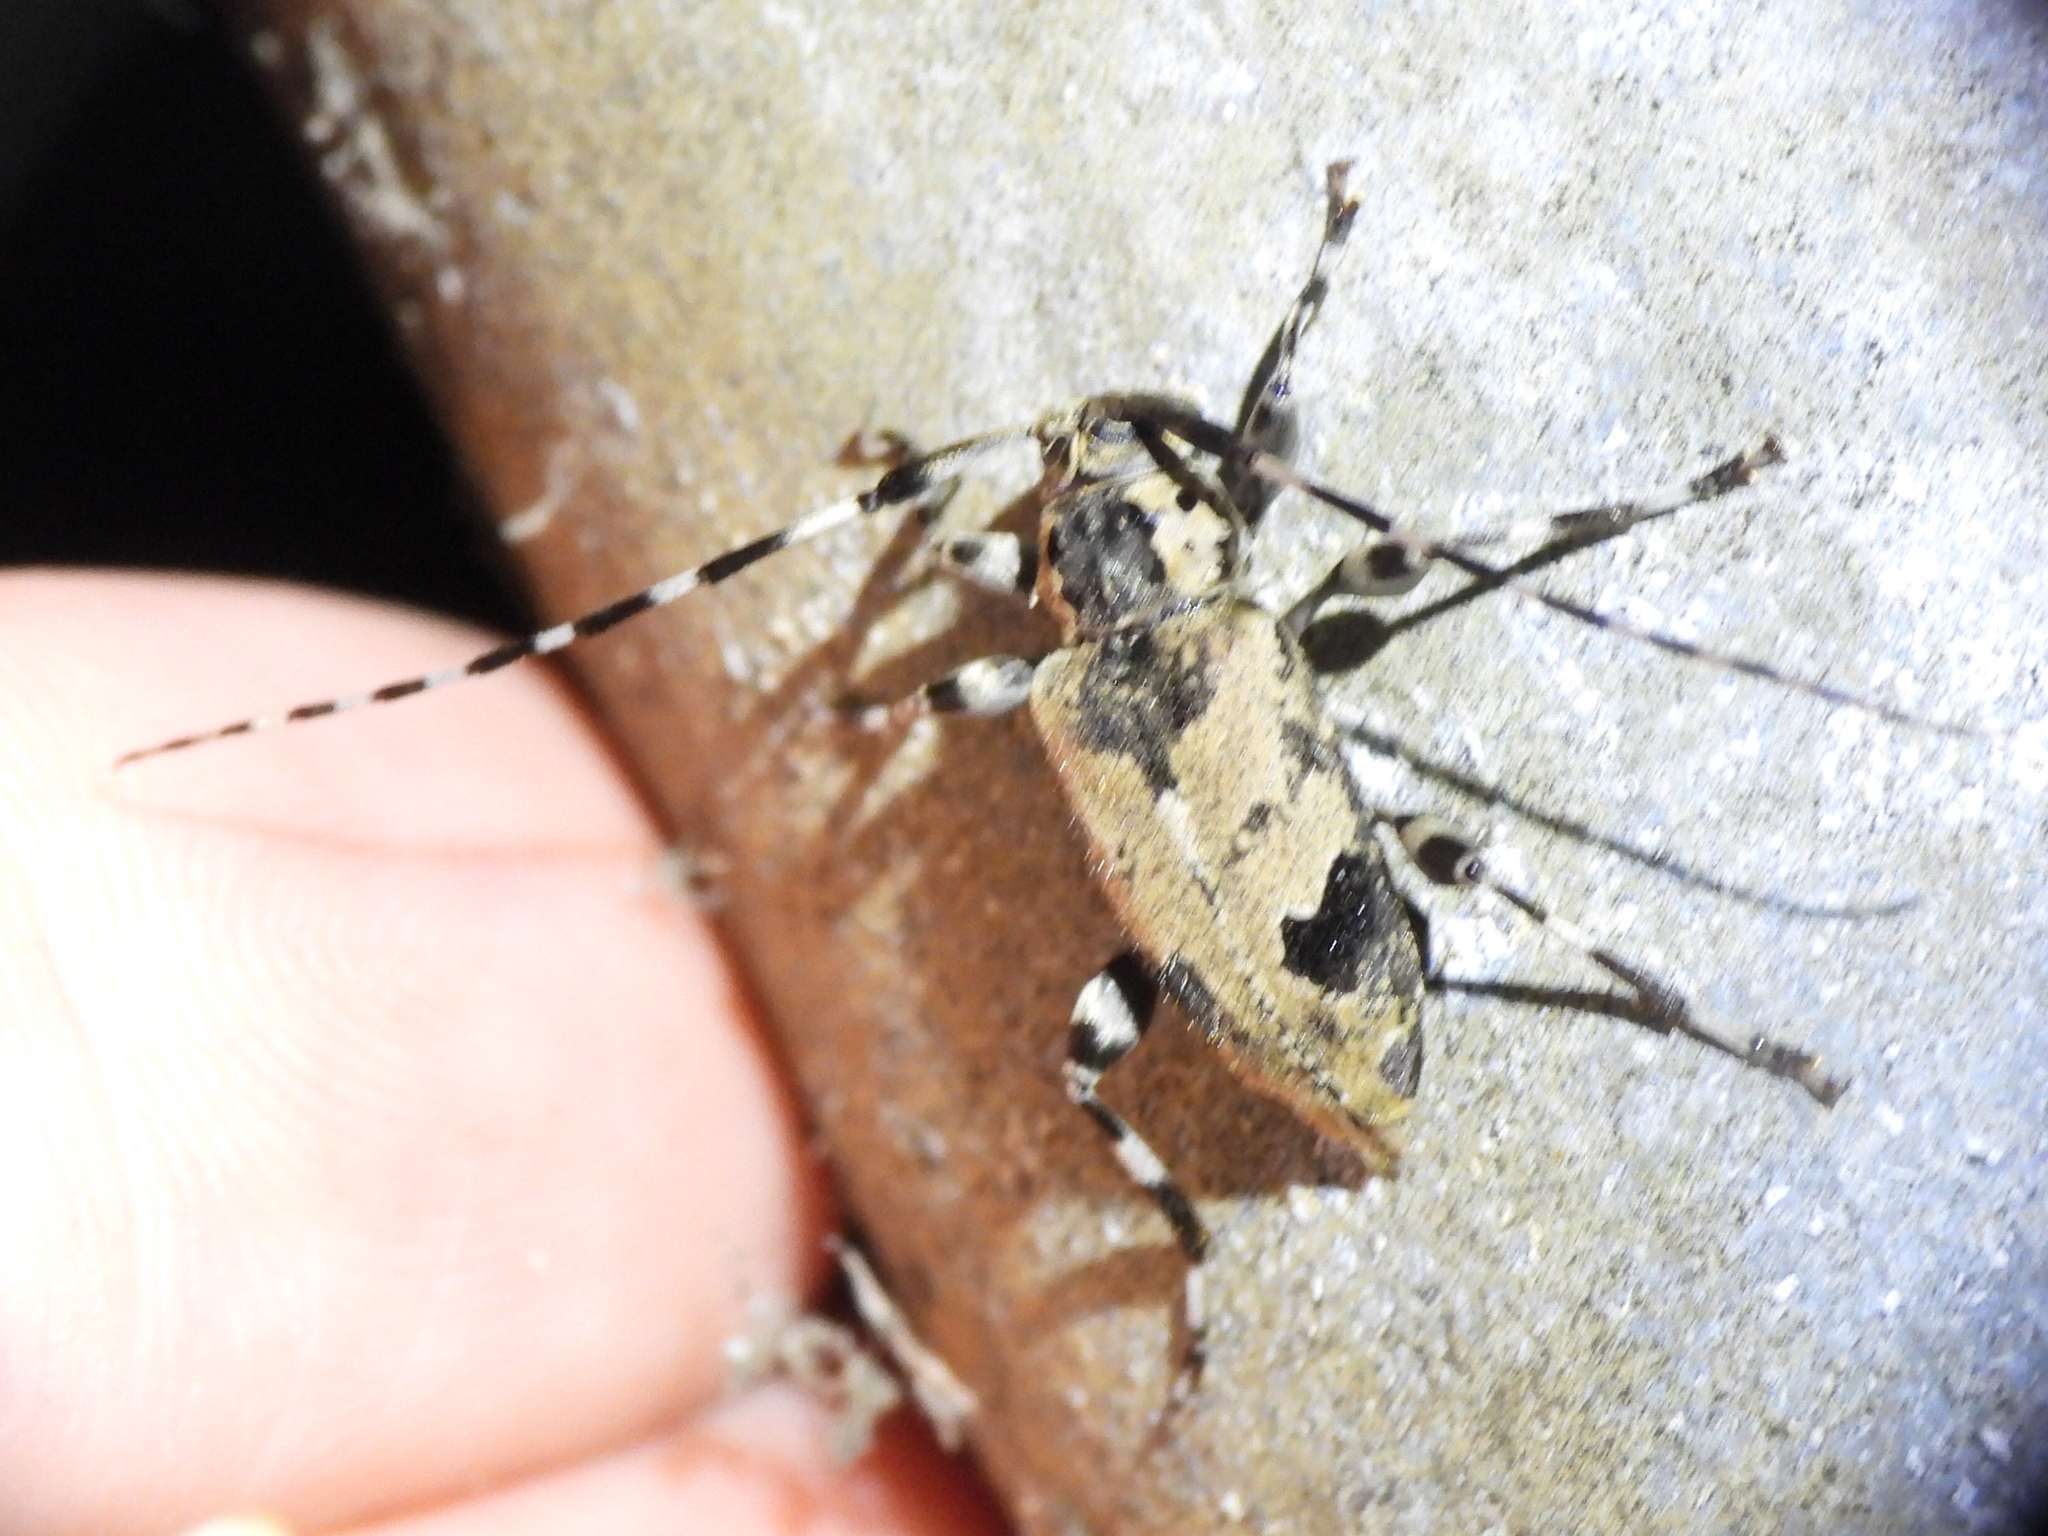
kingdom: Animalia
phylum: Arthropoda
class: Insecta
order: Coleoptera
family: Cerambycidae
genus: Graphisurus
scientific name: Graphisurus triangulifer
